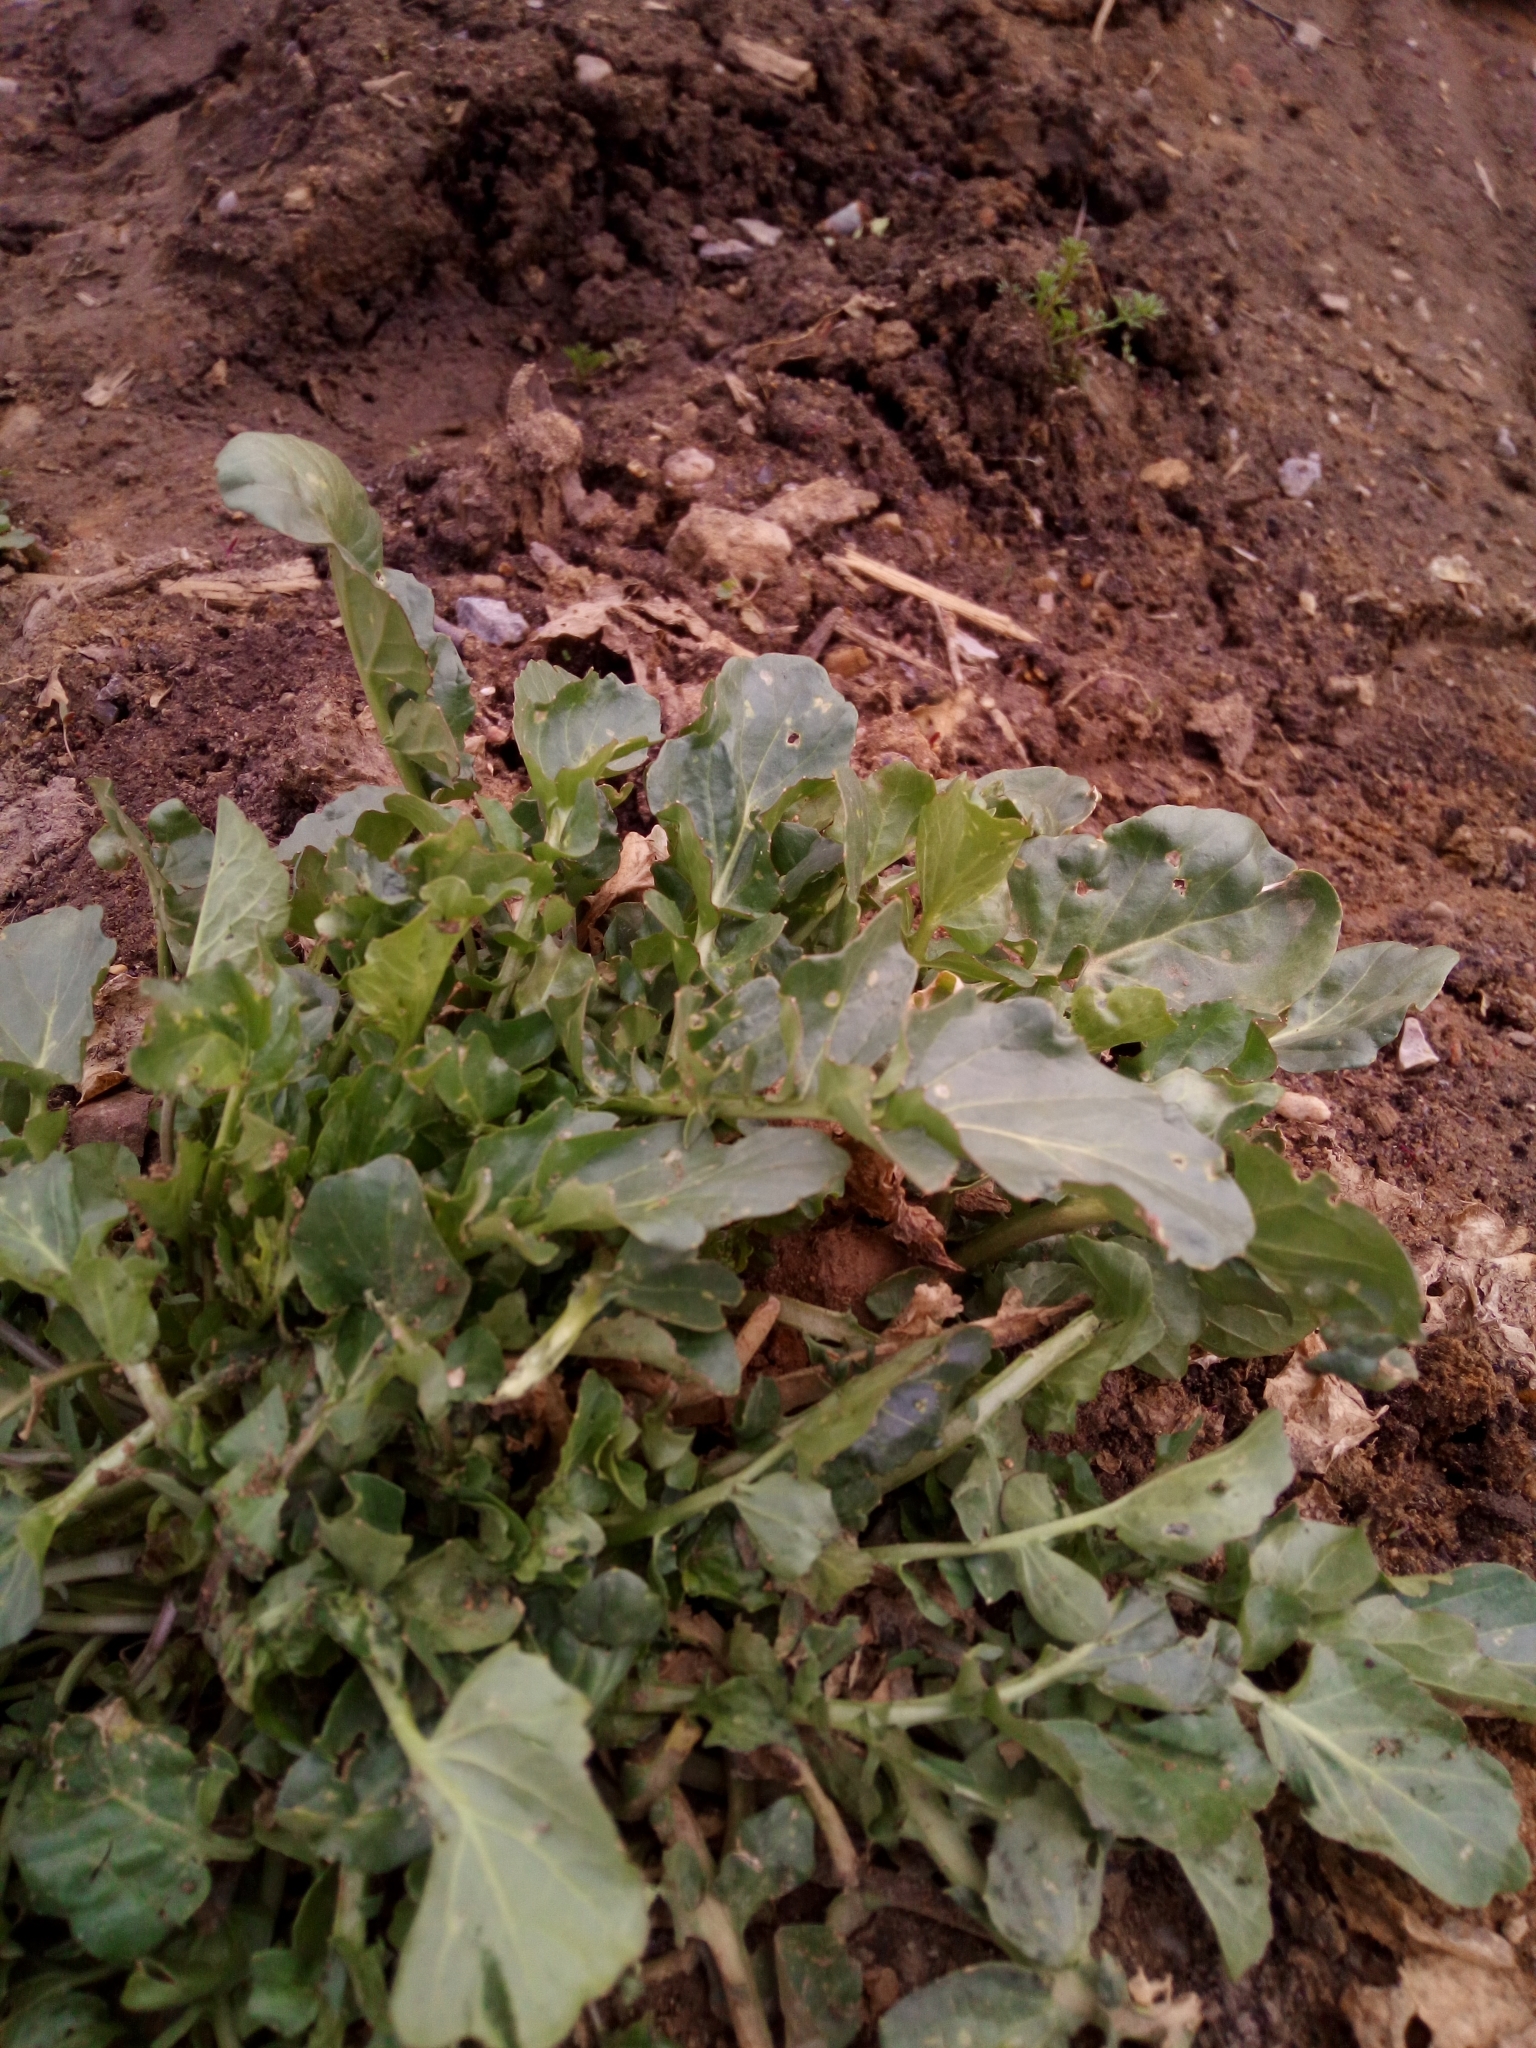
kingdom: Plantae
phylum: Tracheophyta
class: Magnoliopsida
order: Brassicales
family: Brassicaceae
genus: Barbarea
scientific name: Barbarea vulgaris
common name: Cressy-greens
